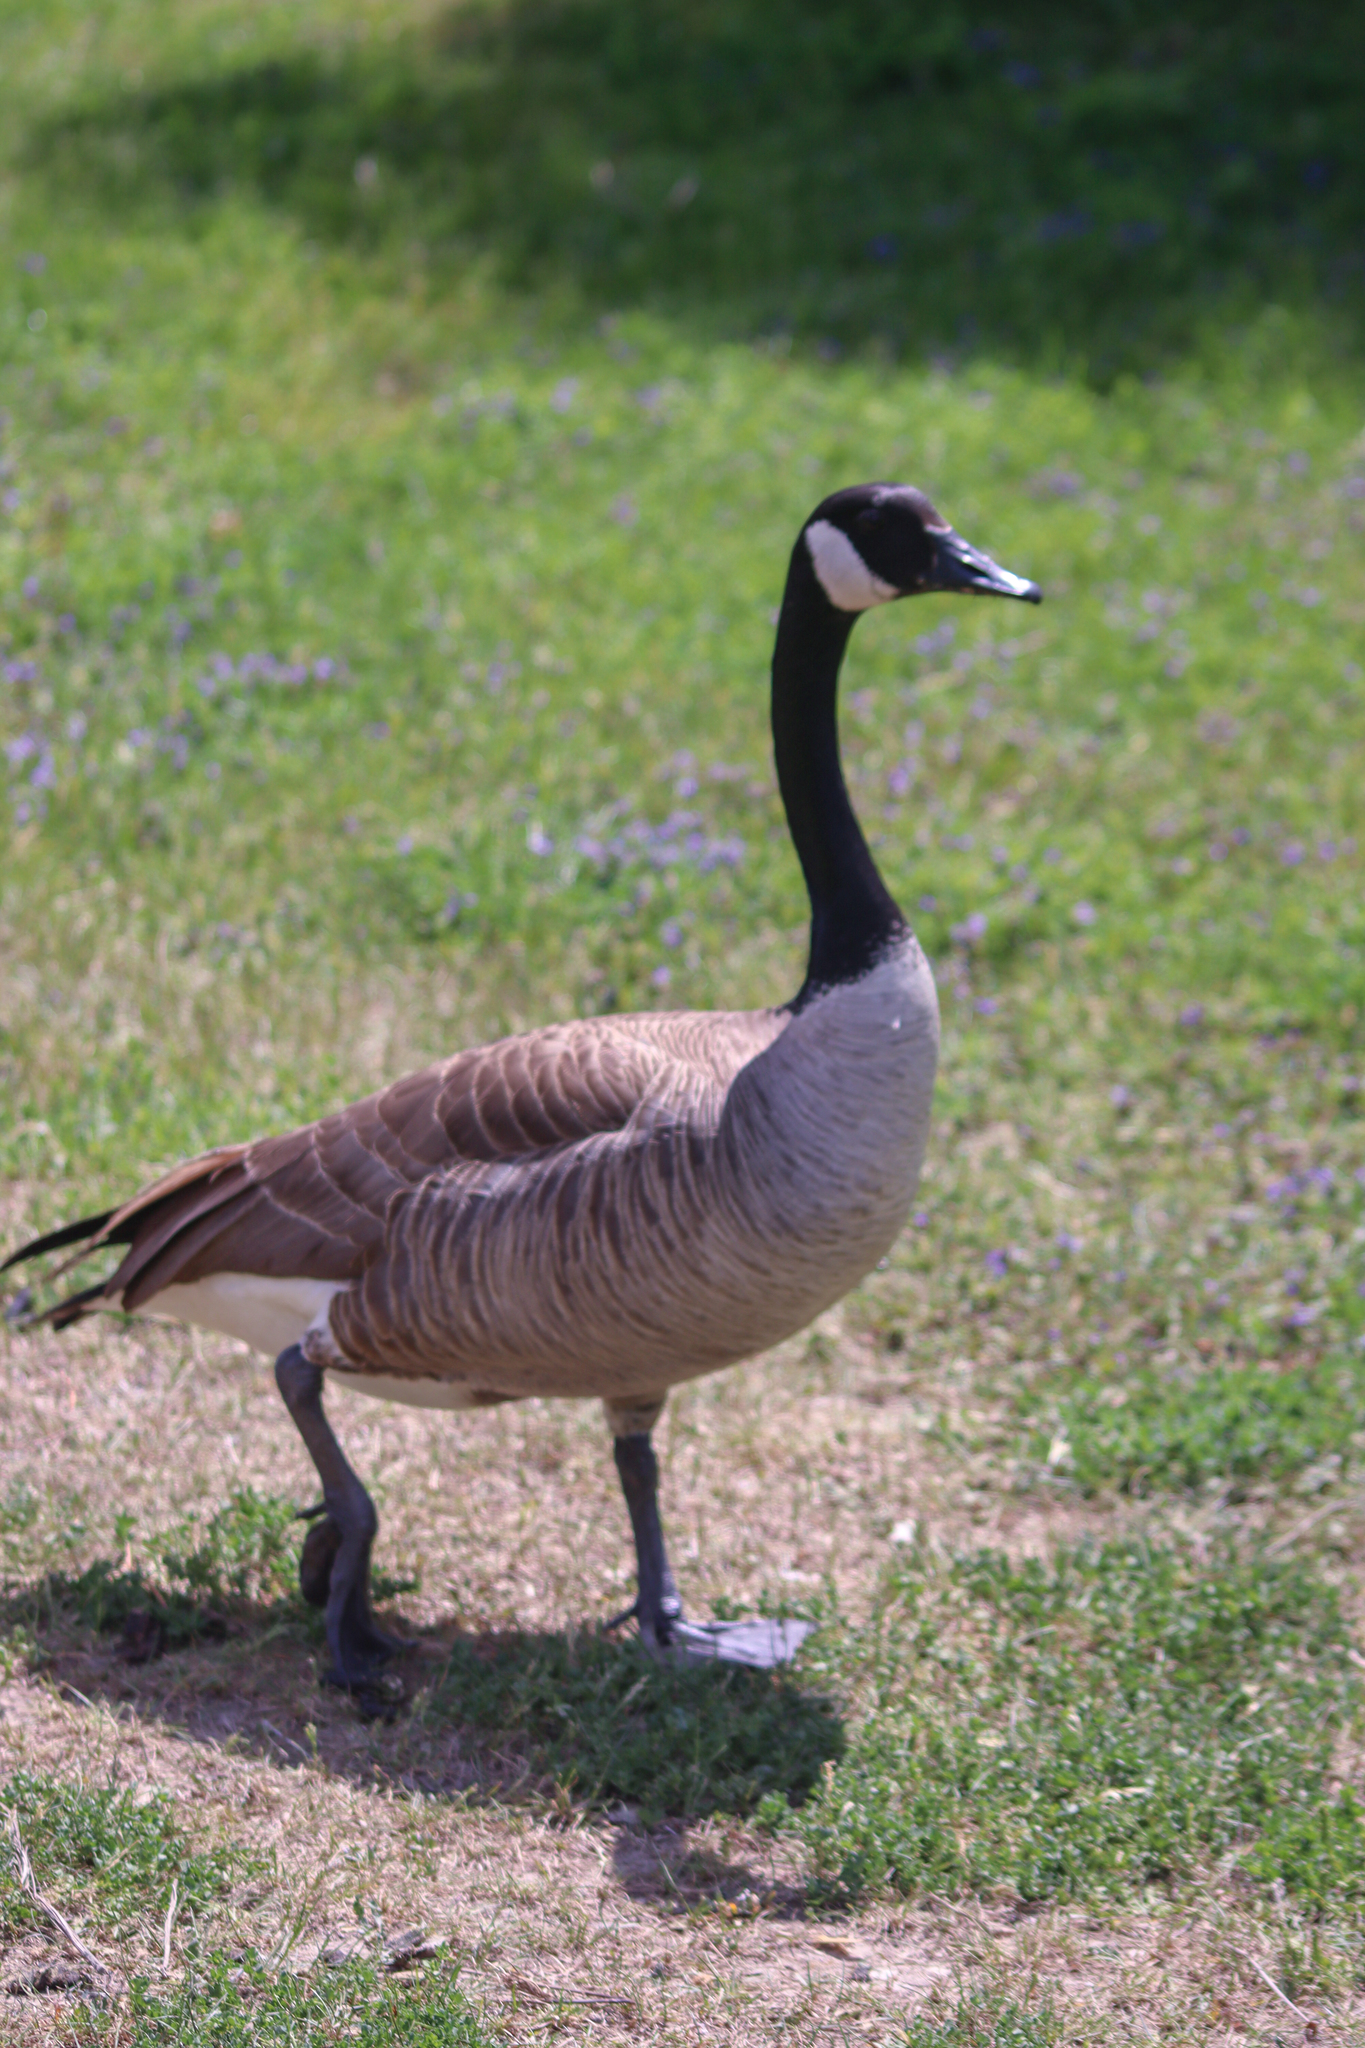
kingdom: Animalia
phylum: Chordata
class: Aves
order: Anseriformes
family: Anatidae
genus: Branta
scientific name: Branta canadensis
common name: Canada goose
